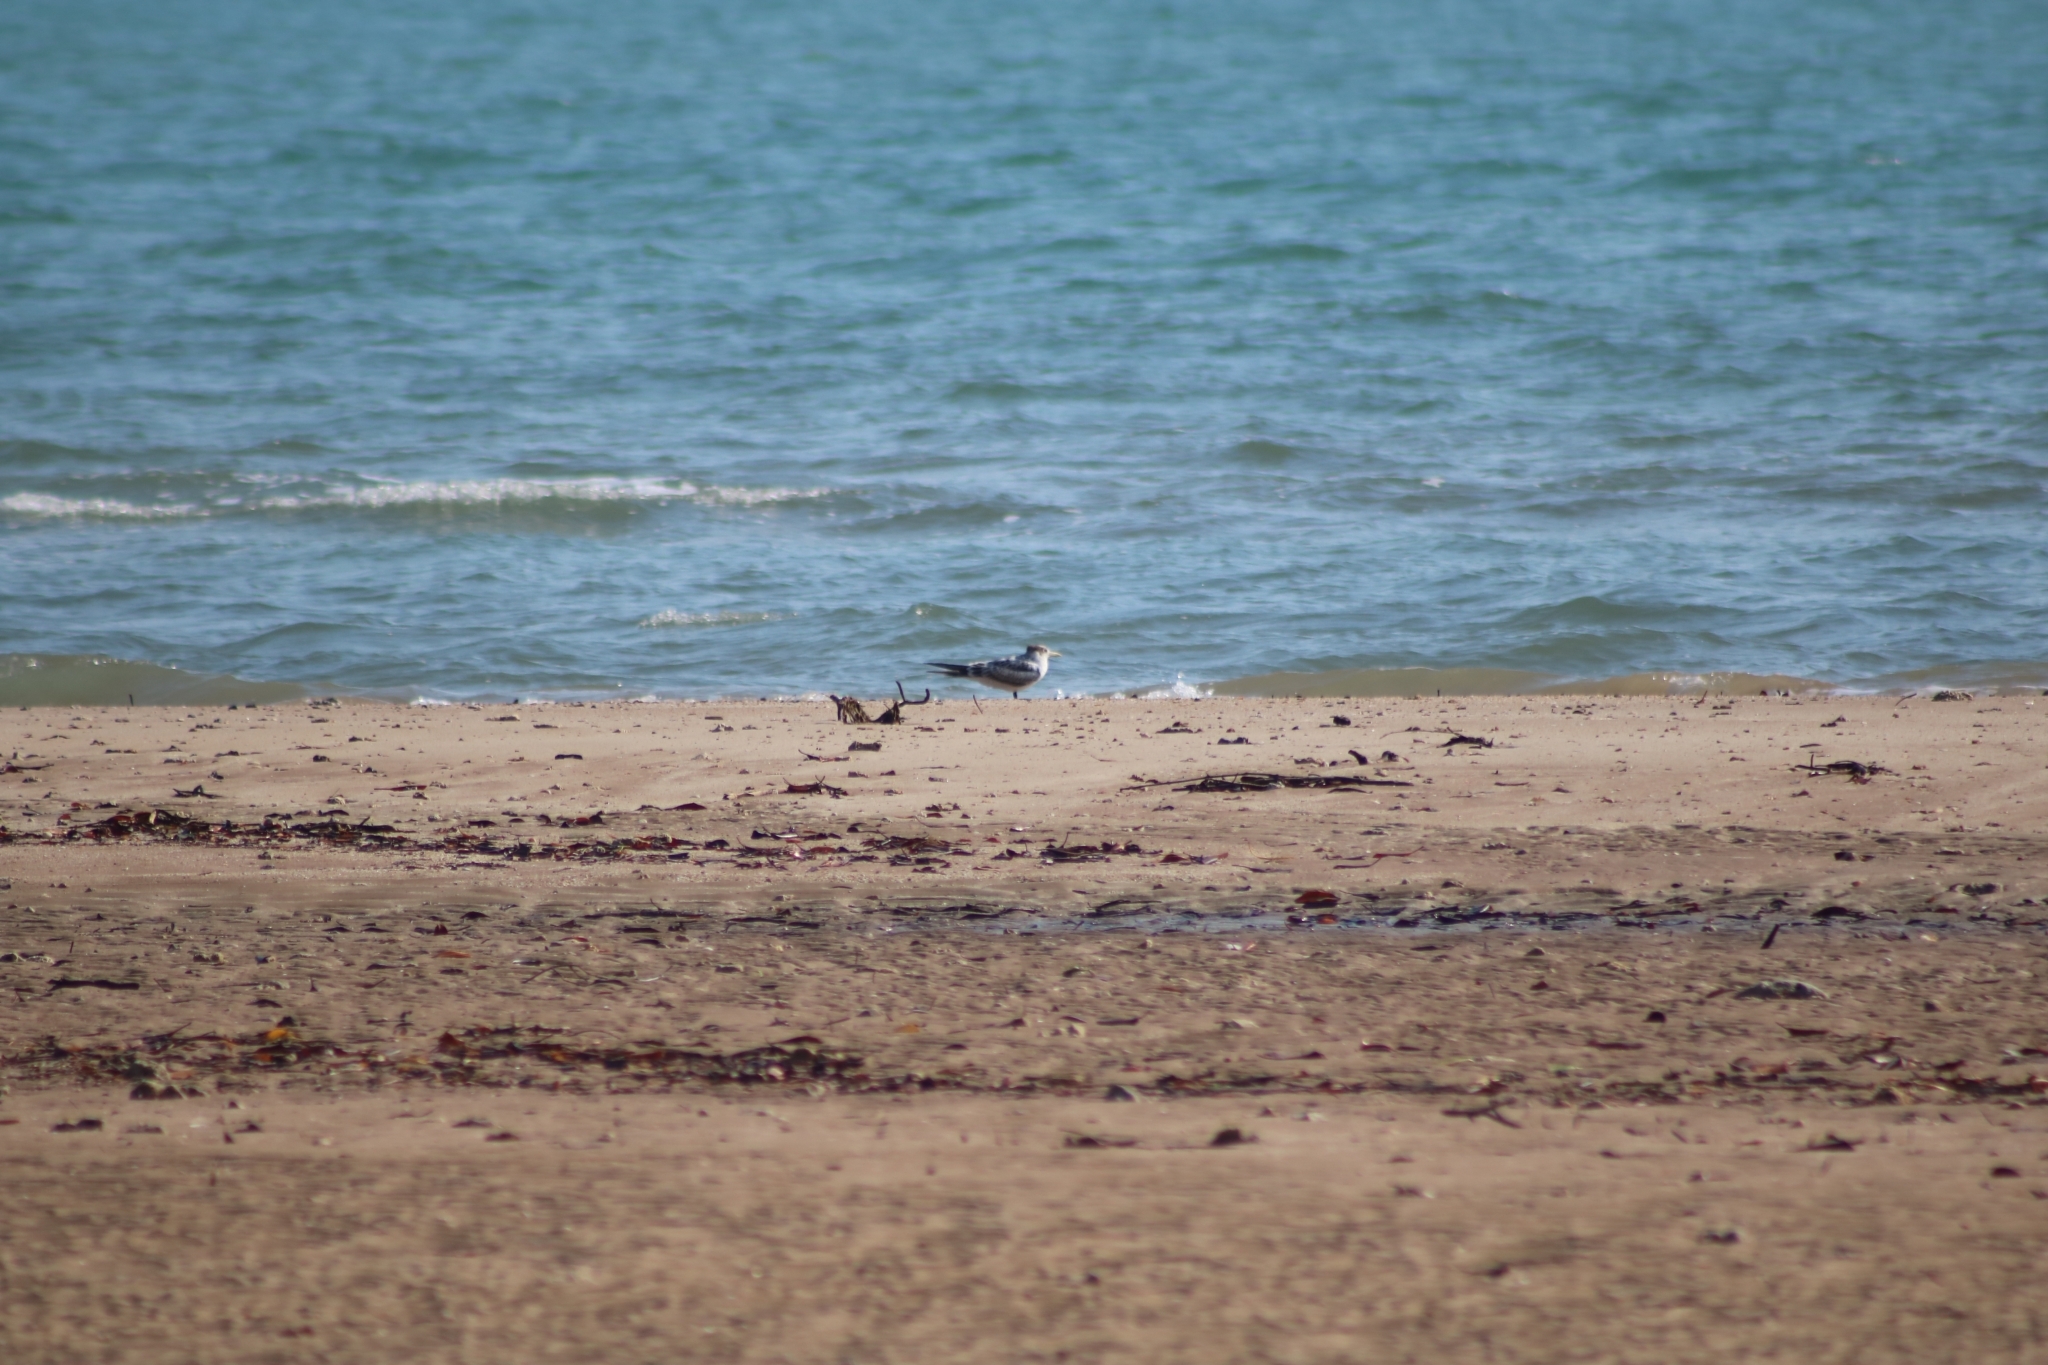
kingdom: Animalia
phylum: Chordata
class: Aves
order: Charadriiformes
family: Laridae
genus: Thalasseus
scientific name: Thalasseus bergii
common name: Greater crested tern
